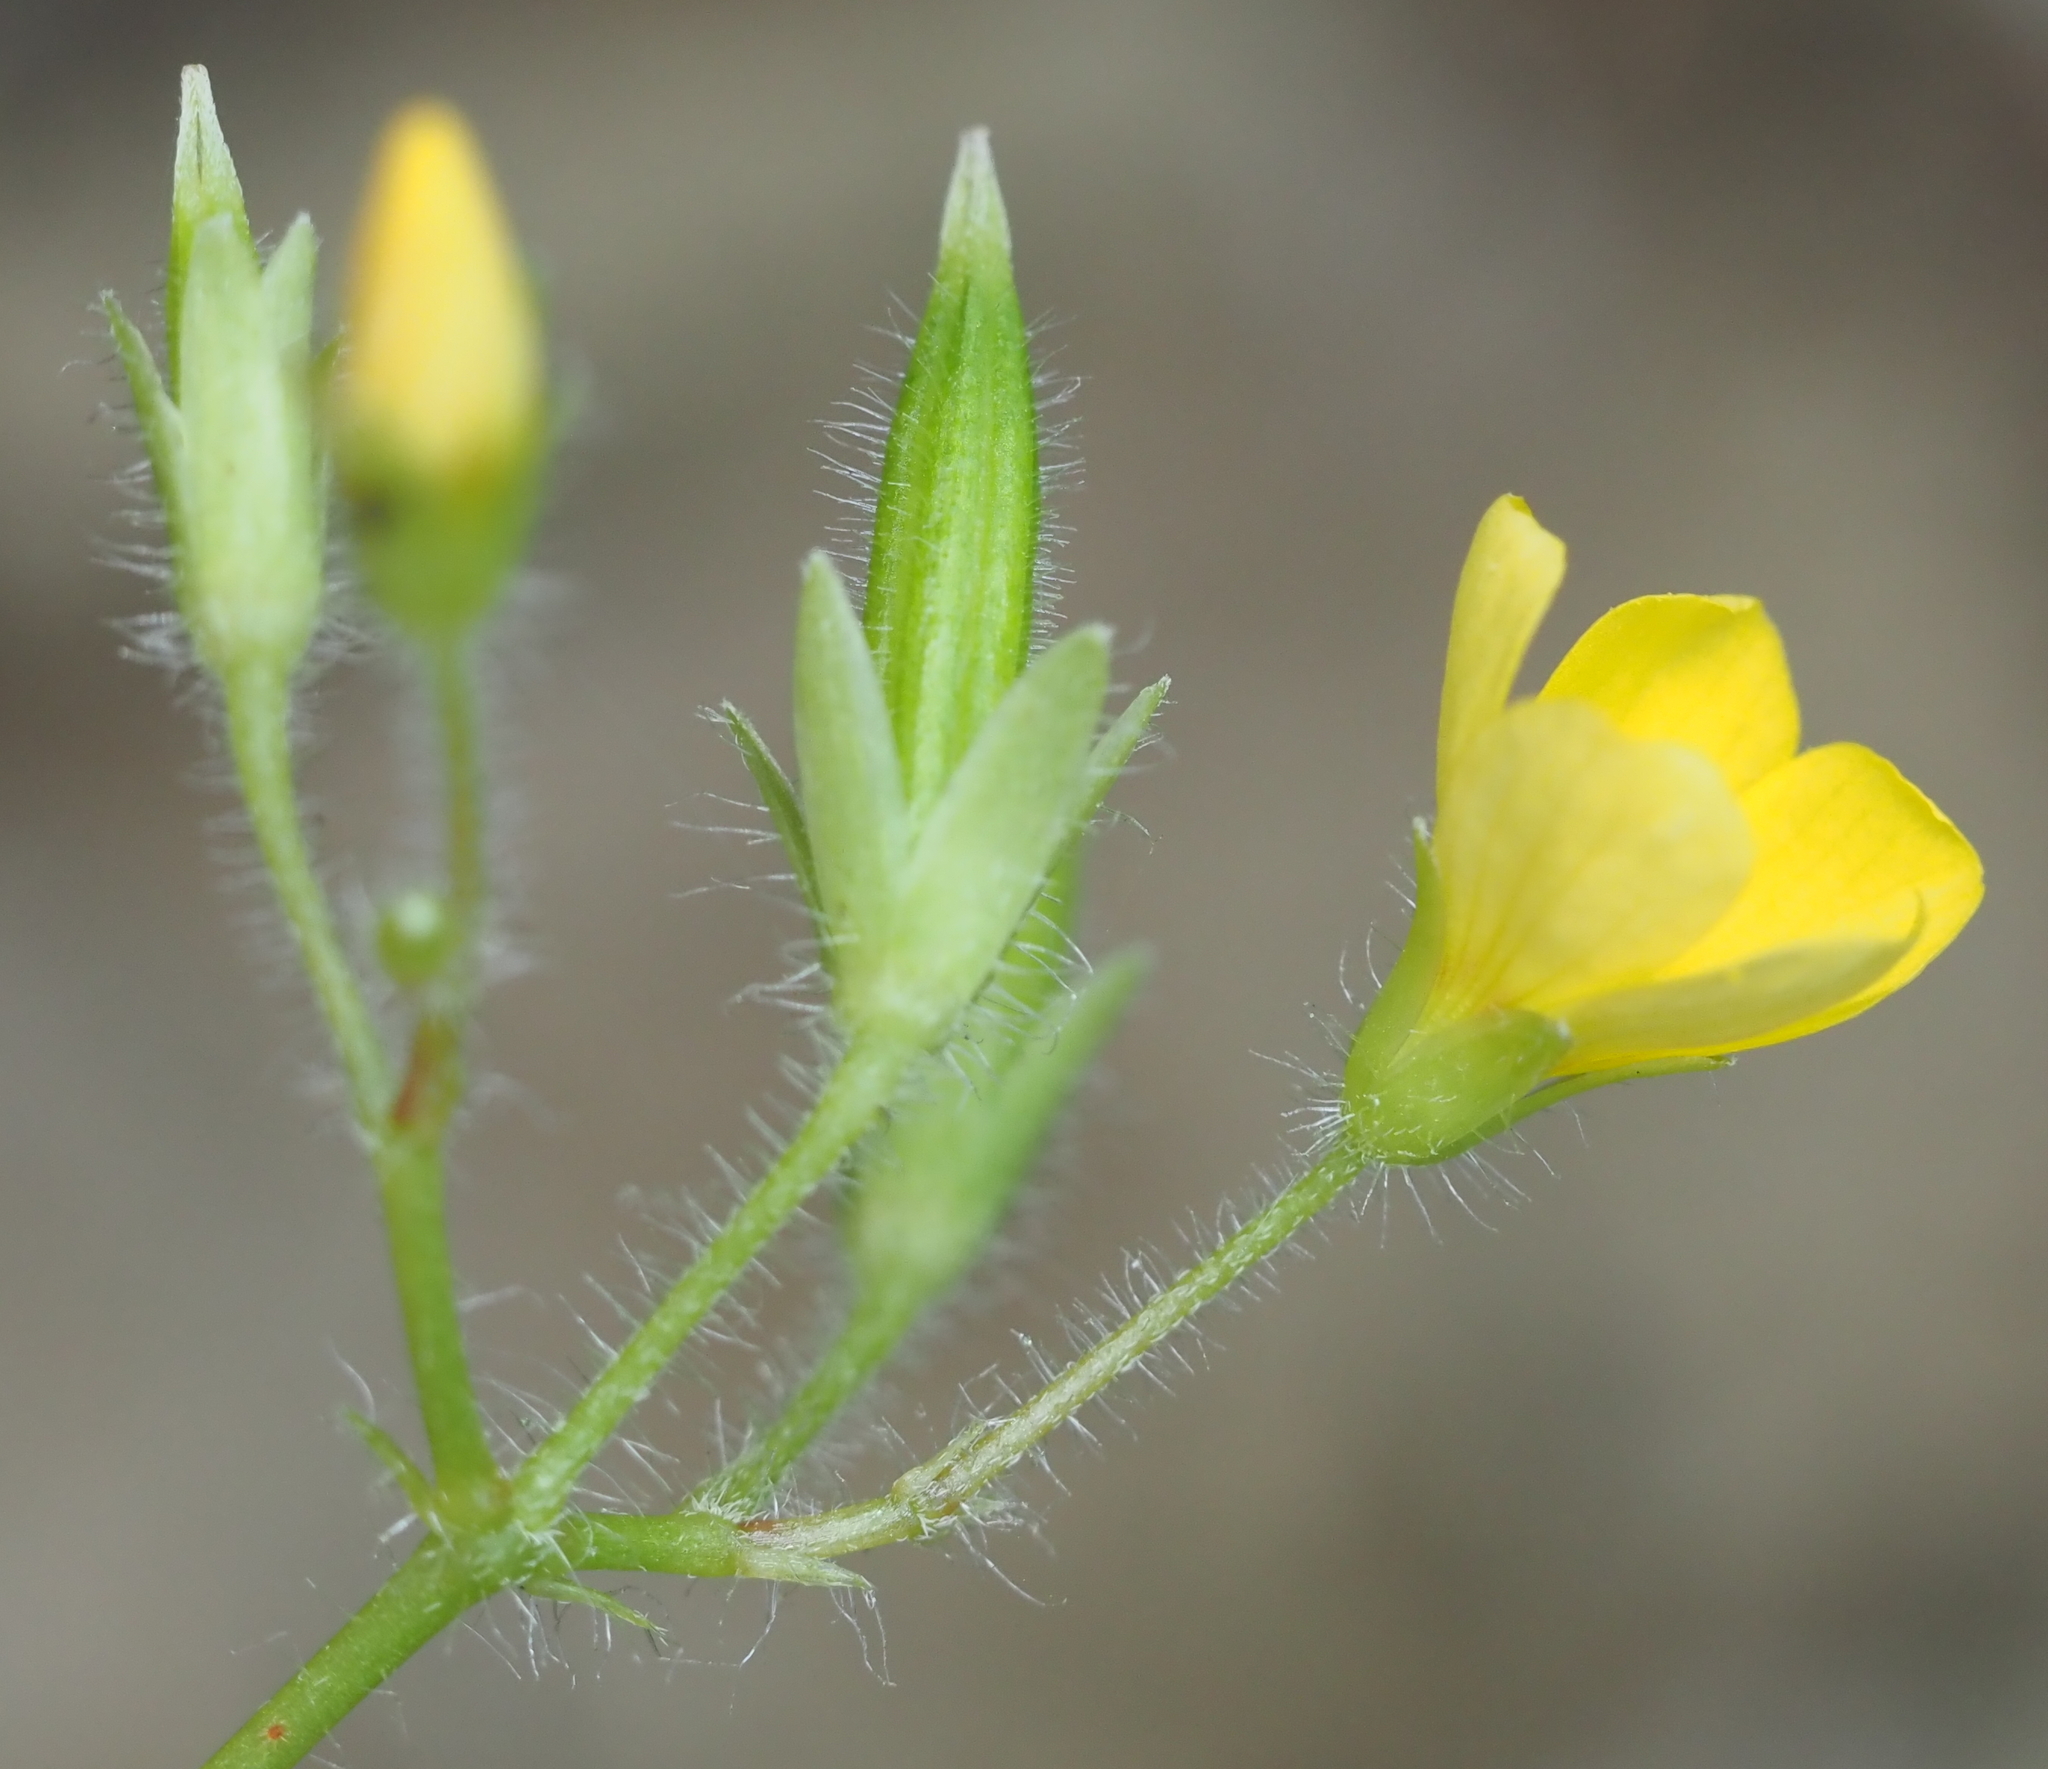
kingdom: Plantae
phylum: Tracheophyta
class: Magnoliopsida
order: Oxalidales
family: Oxalidaceae
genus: Oxalis
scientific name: Oxalis stricta
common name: Upright yellow-sorrel
